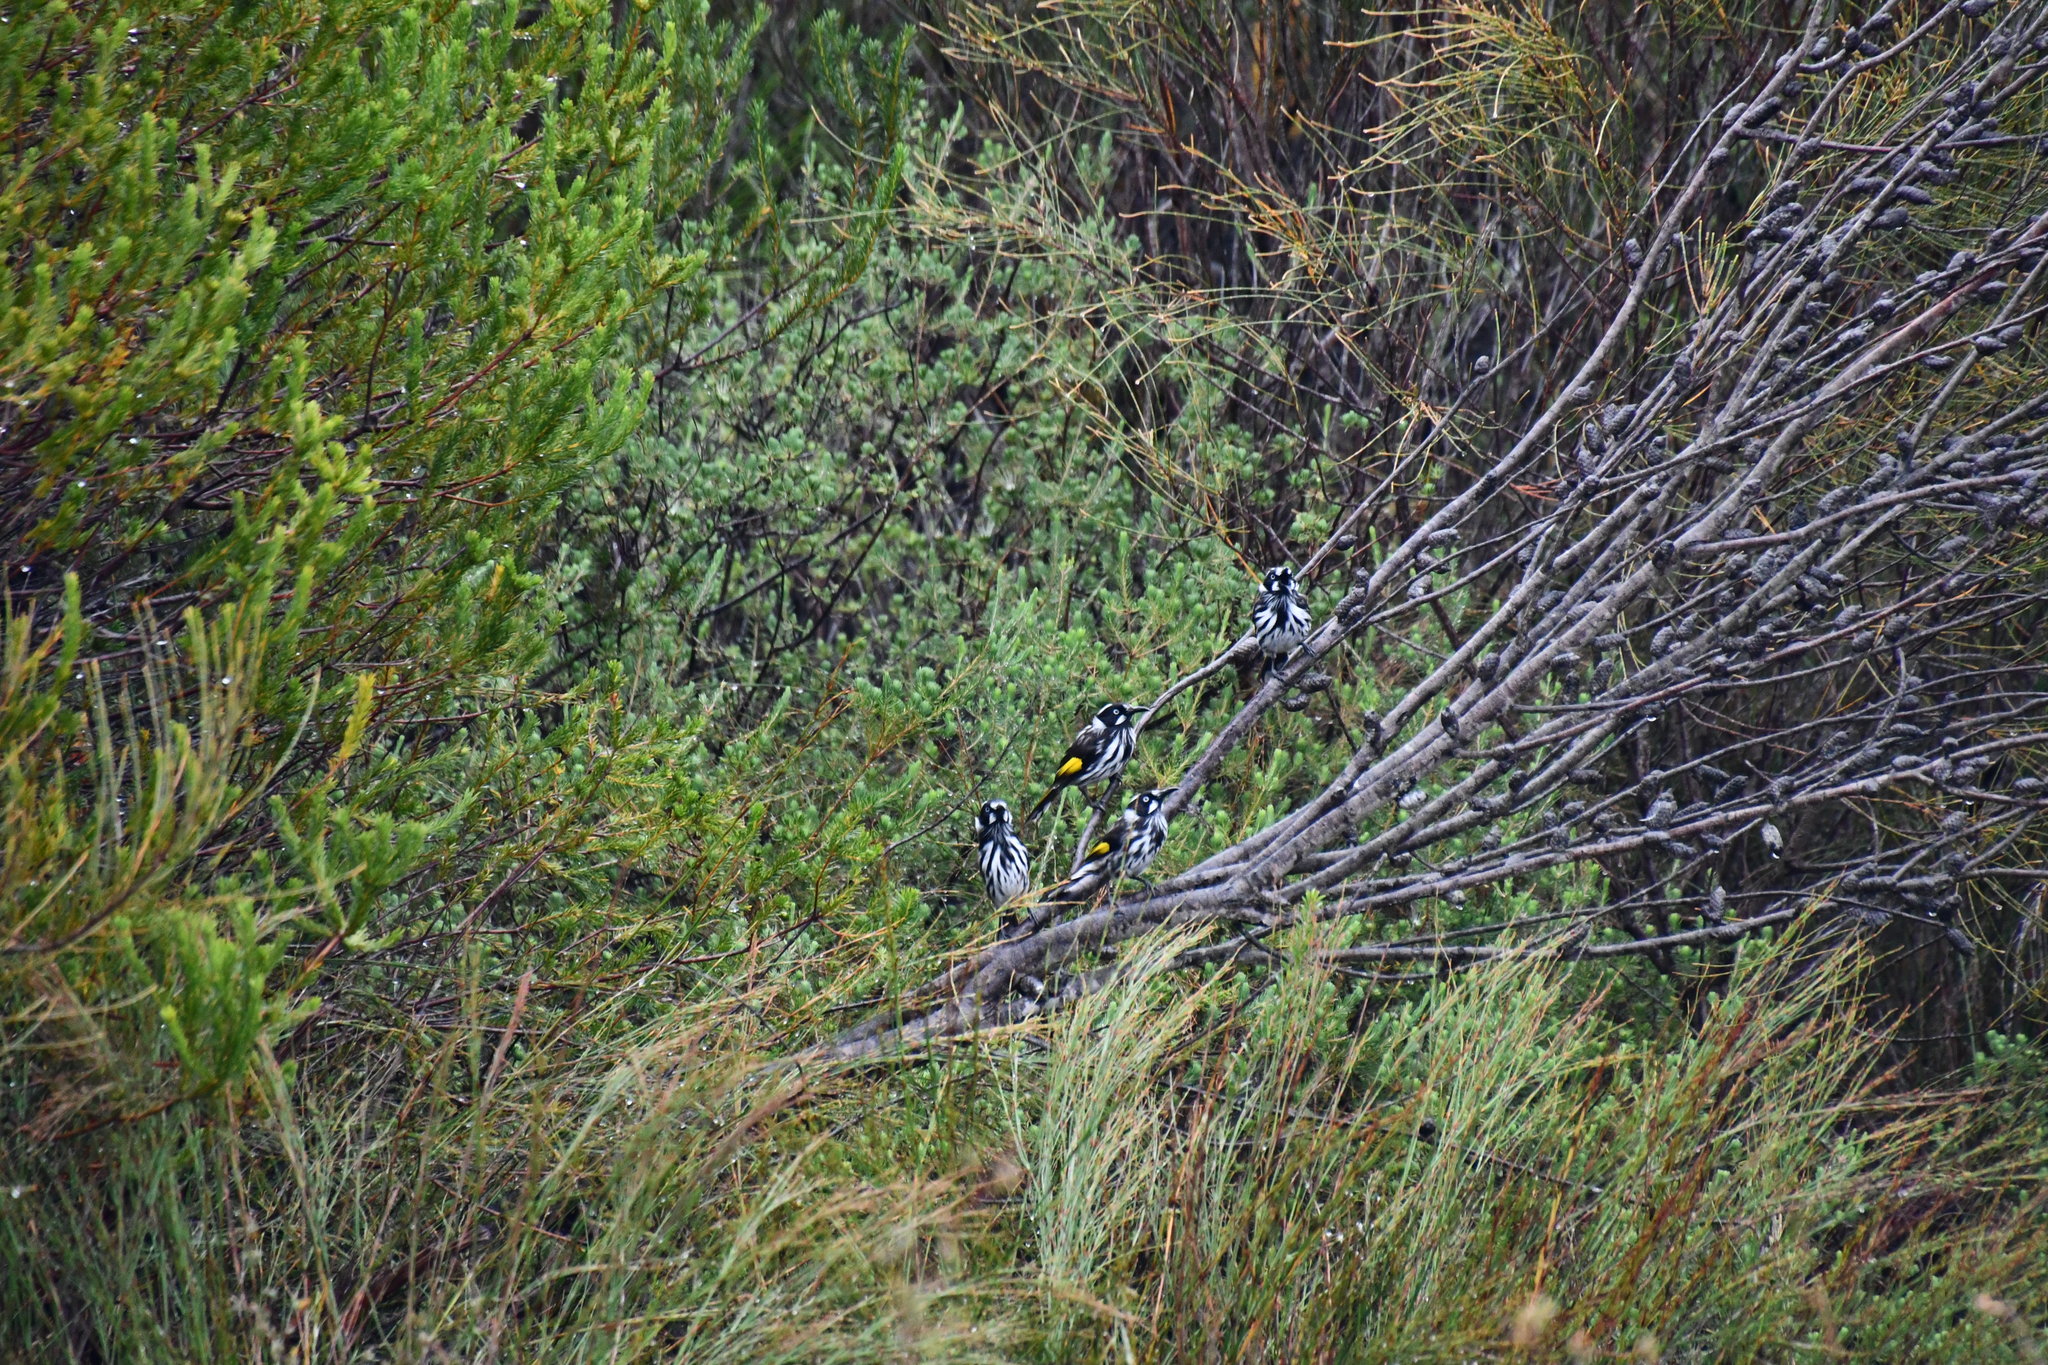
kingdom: Animalia
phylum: Chordata
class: Aves
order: Passeriformes
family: Meliphagidae
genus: Phylidonyris
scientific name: Phylidonyris novaehollandiae
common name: New holland honeyeater
